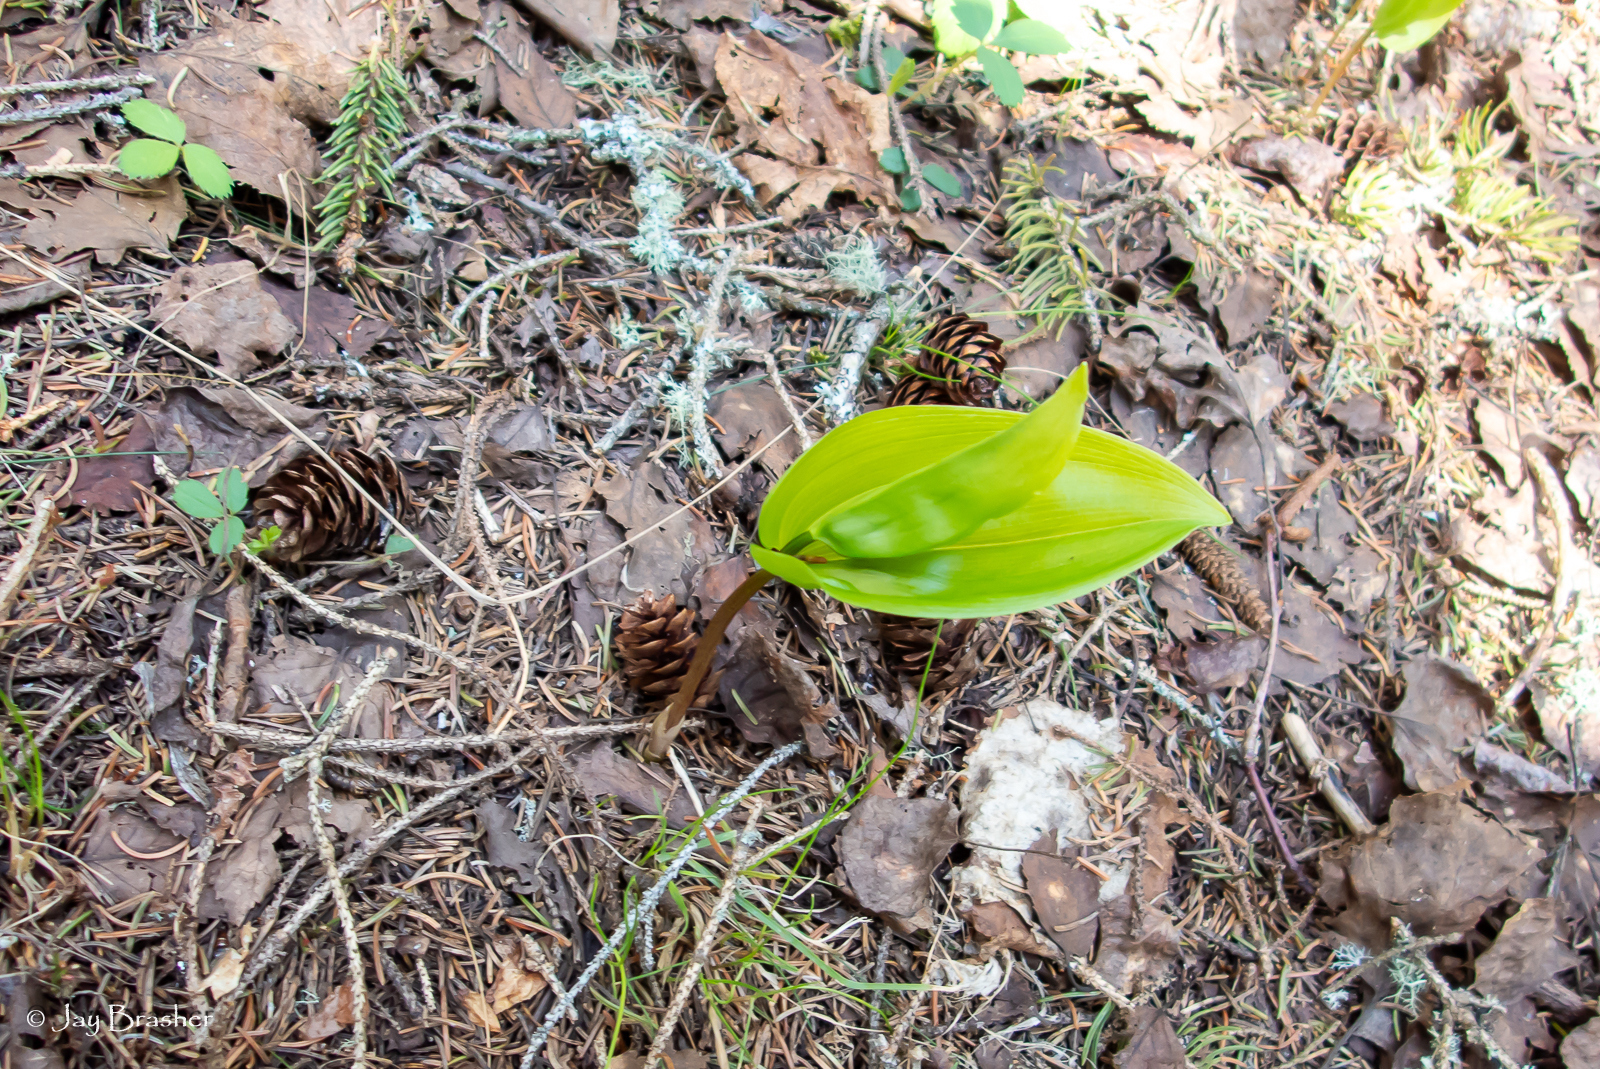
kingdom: Plantae
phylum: Tracheophyta
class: Liliopsida
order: Asparagales
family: Asparagaceae
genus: Maianthemum
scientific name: Maianthemum canadense
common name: False lily-of-the-valley
